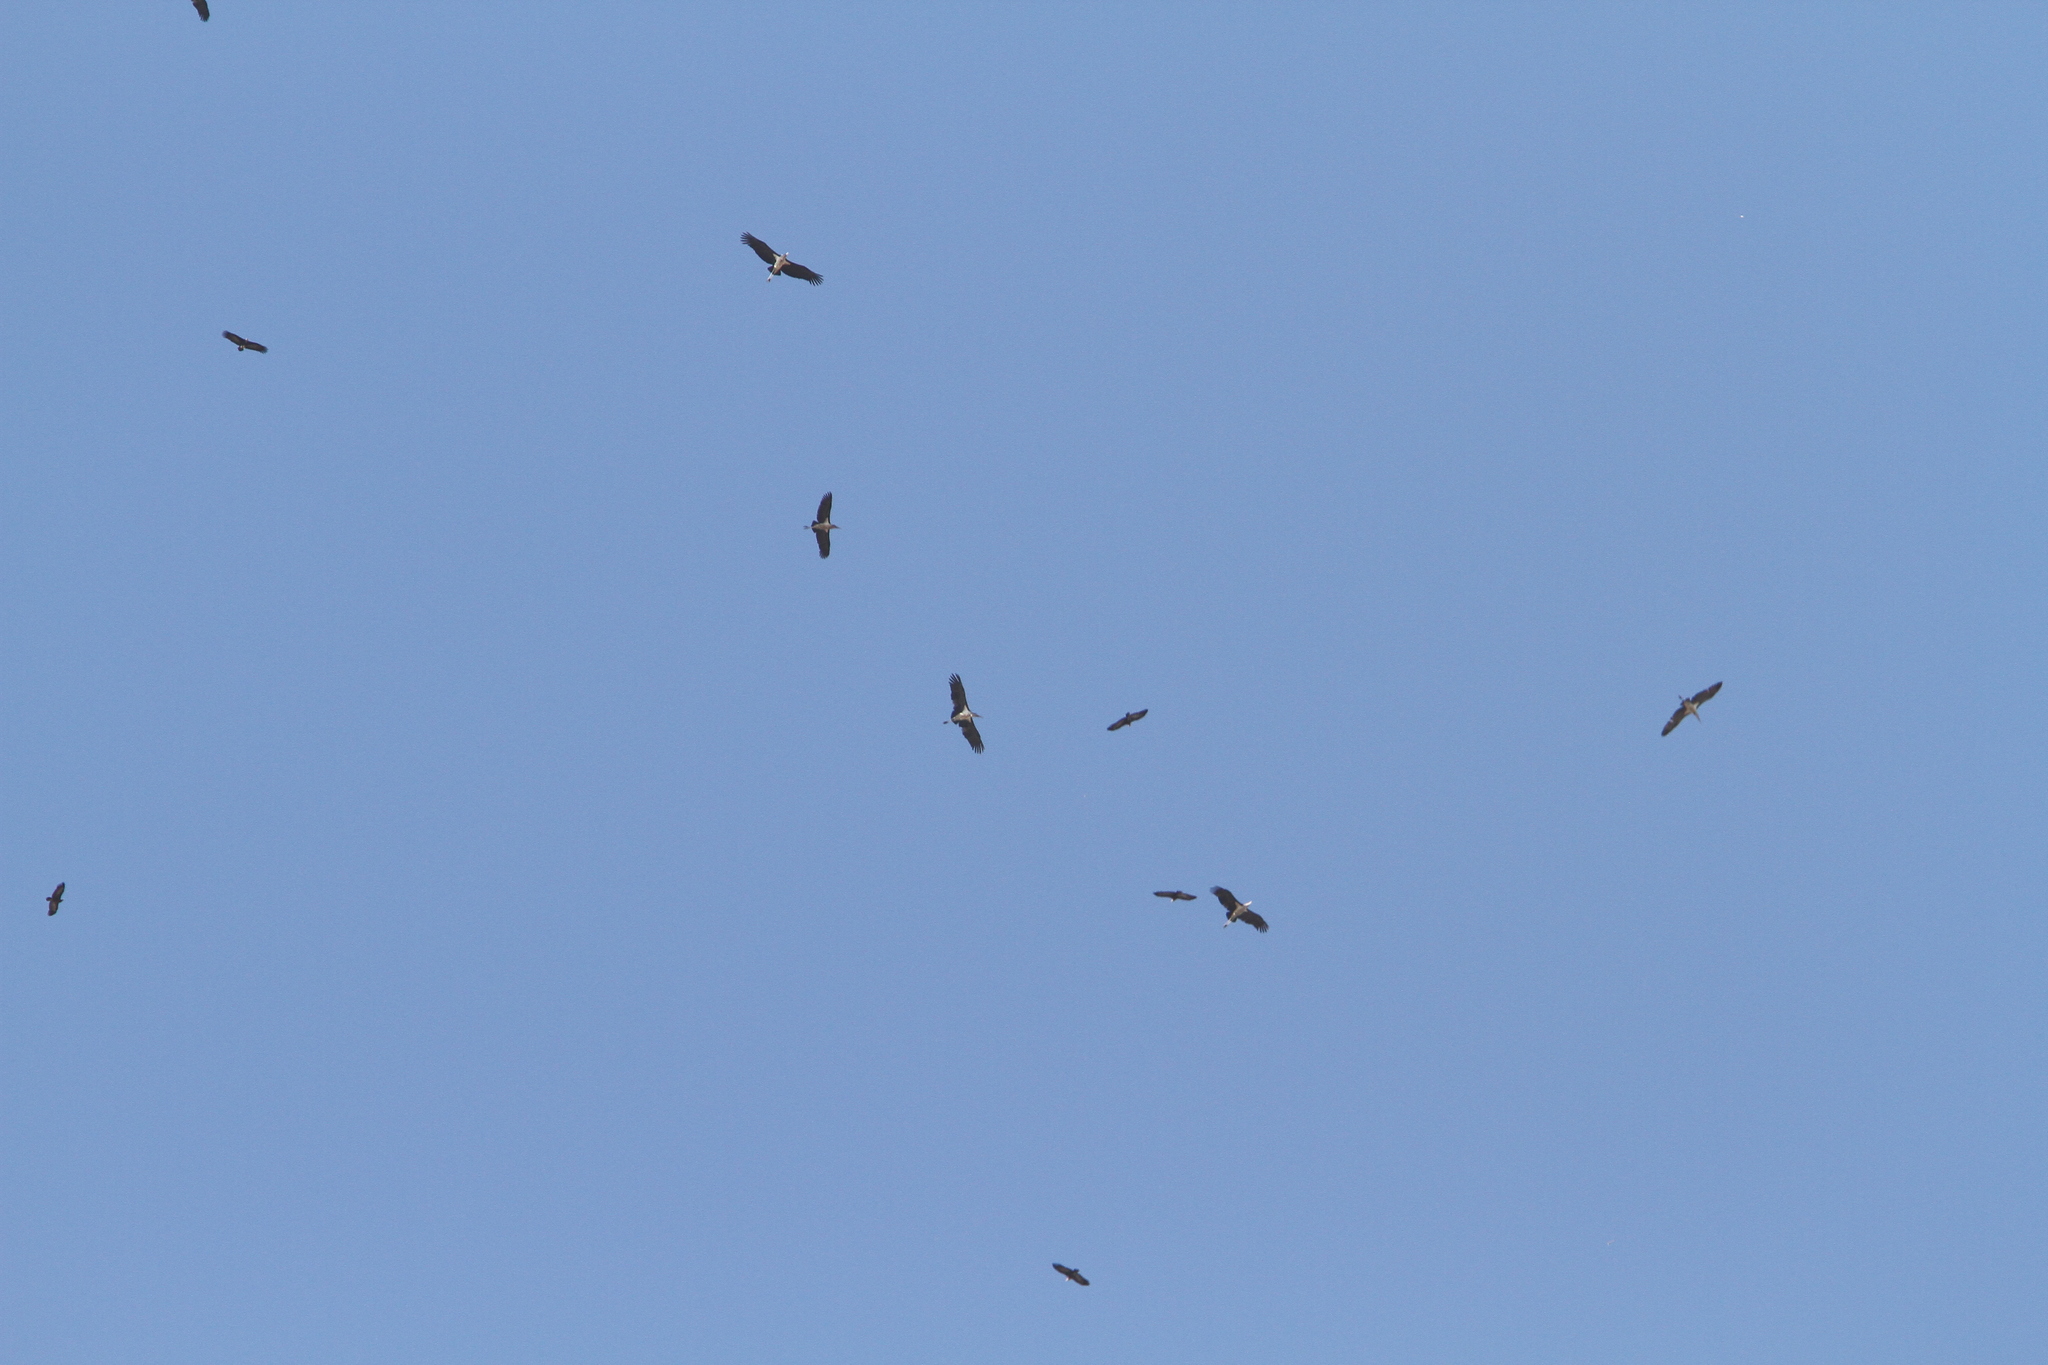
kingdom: Animalia
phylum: Chordata
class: Aves
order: Ciconiiformes
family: Ciconiidae
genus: Leptoptilos
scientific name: Leptoptilos crumenifer
